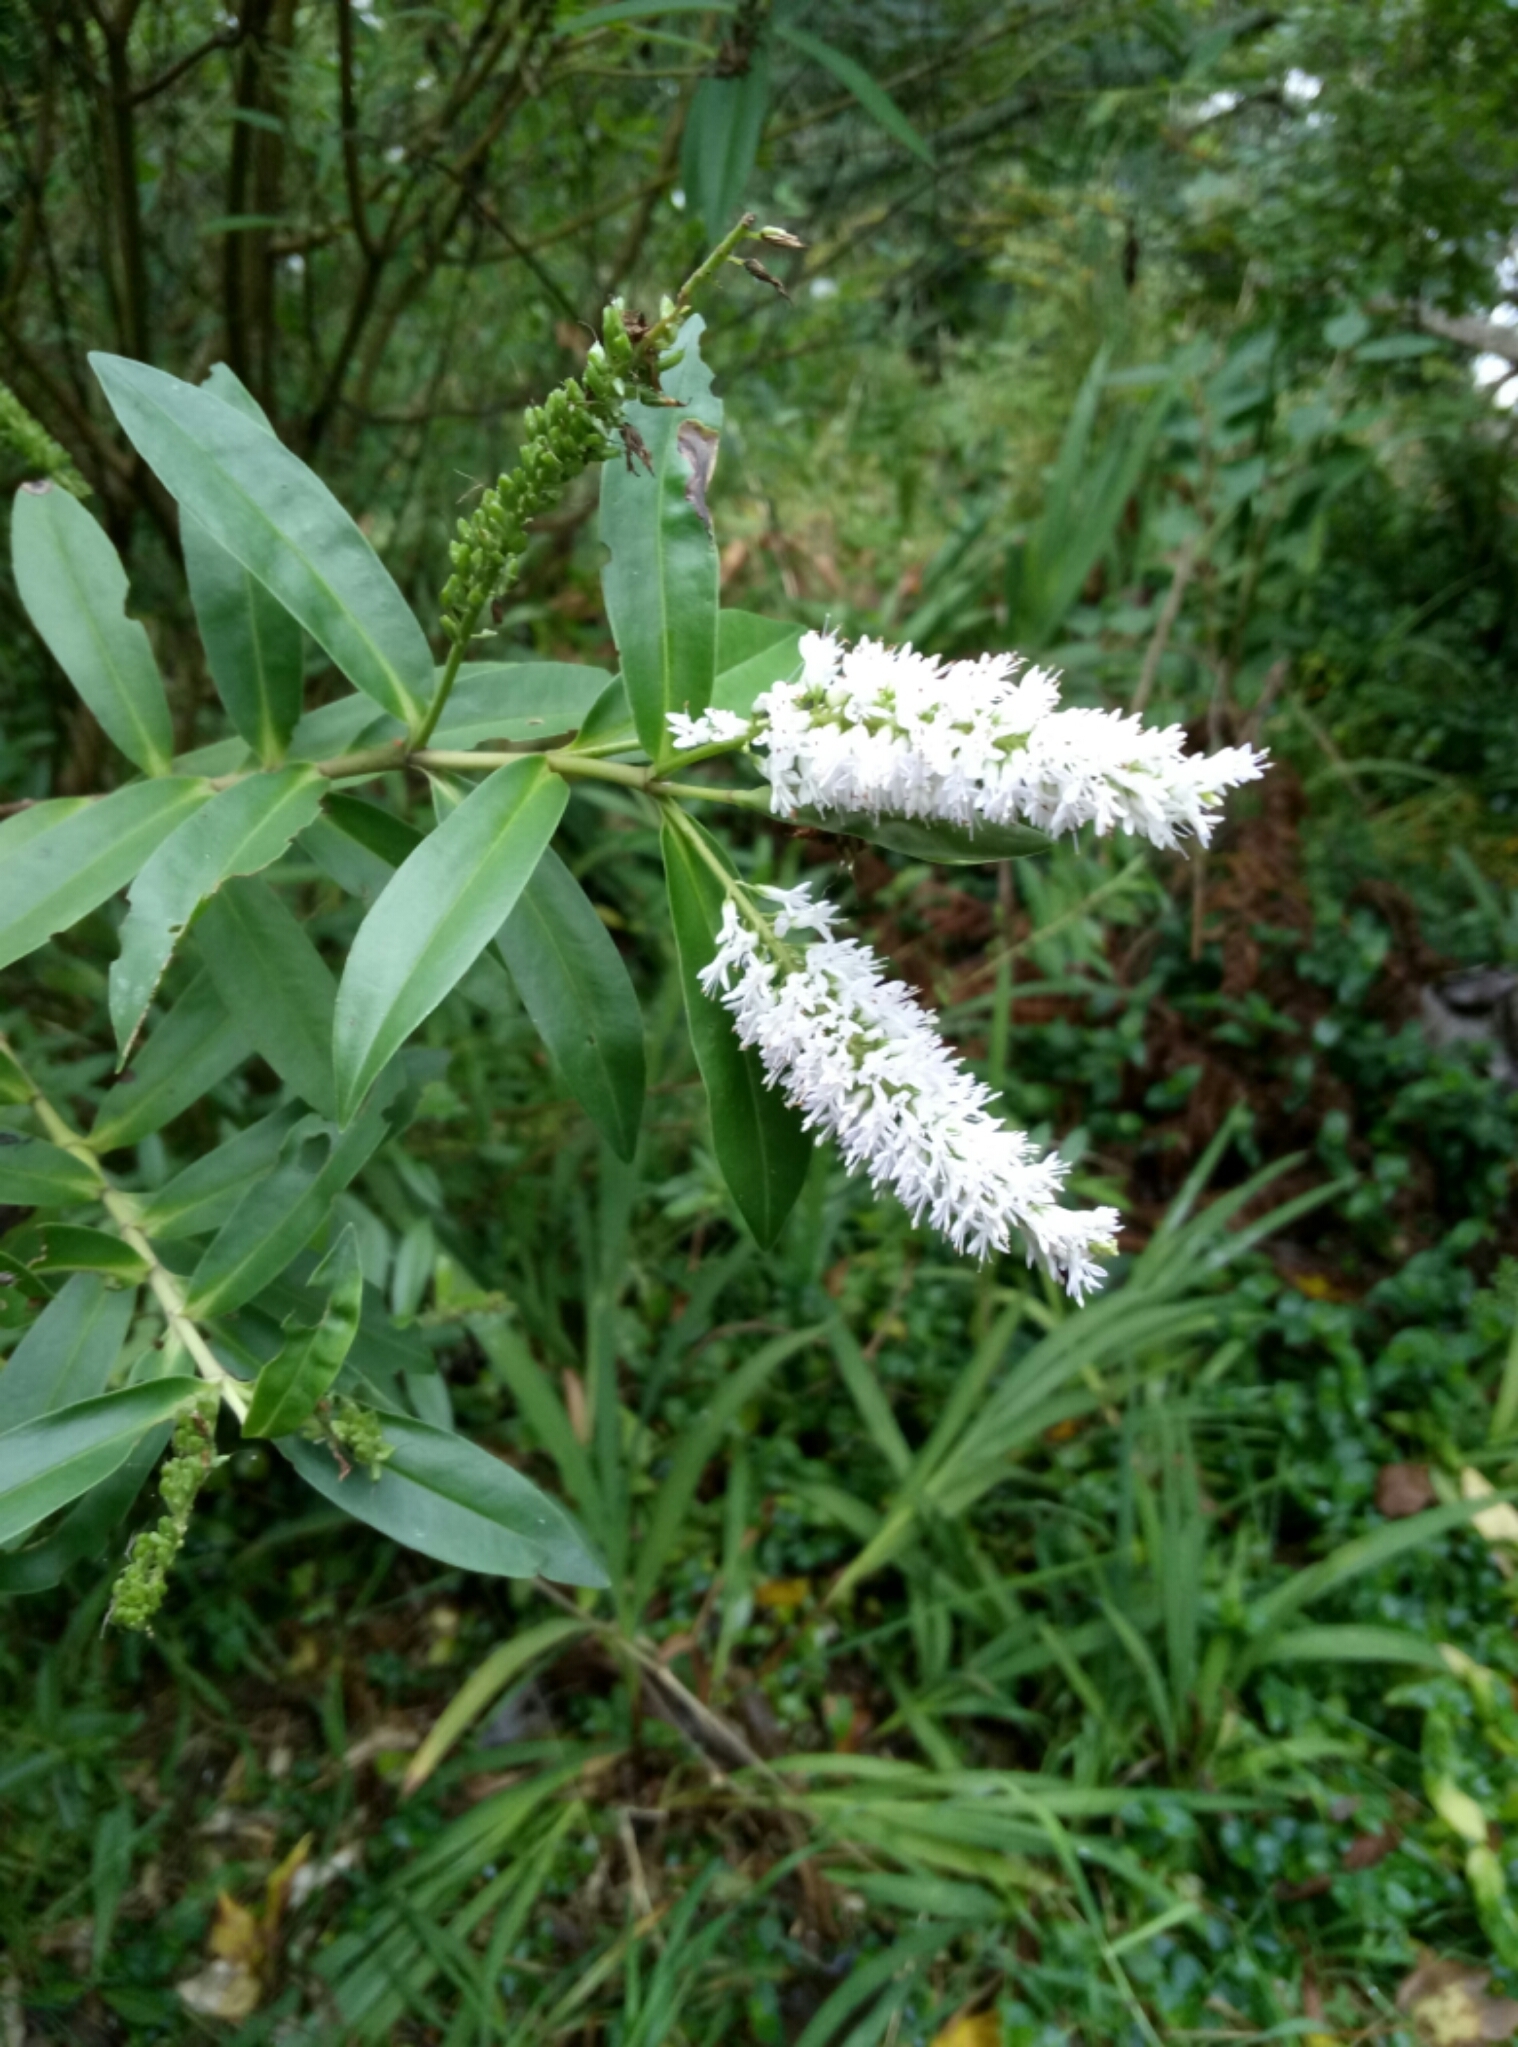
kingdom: Plantae
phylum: Tracheophyta
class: Magnoliopsida
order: Lamiales
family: Plantaginaceae
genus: Veronica
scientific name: Veronica stricta
